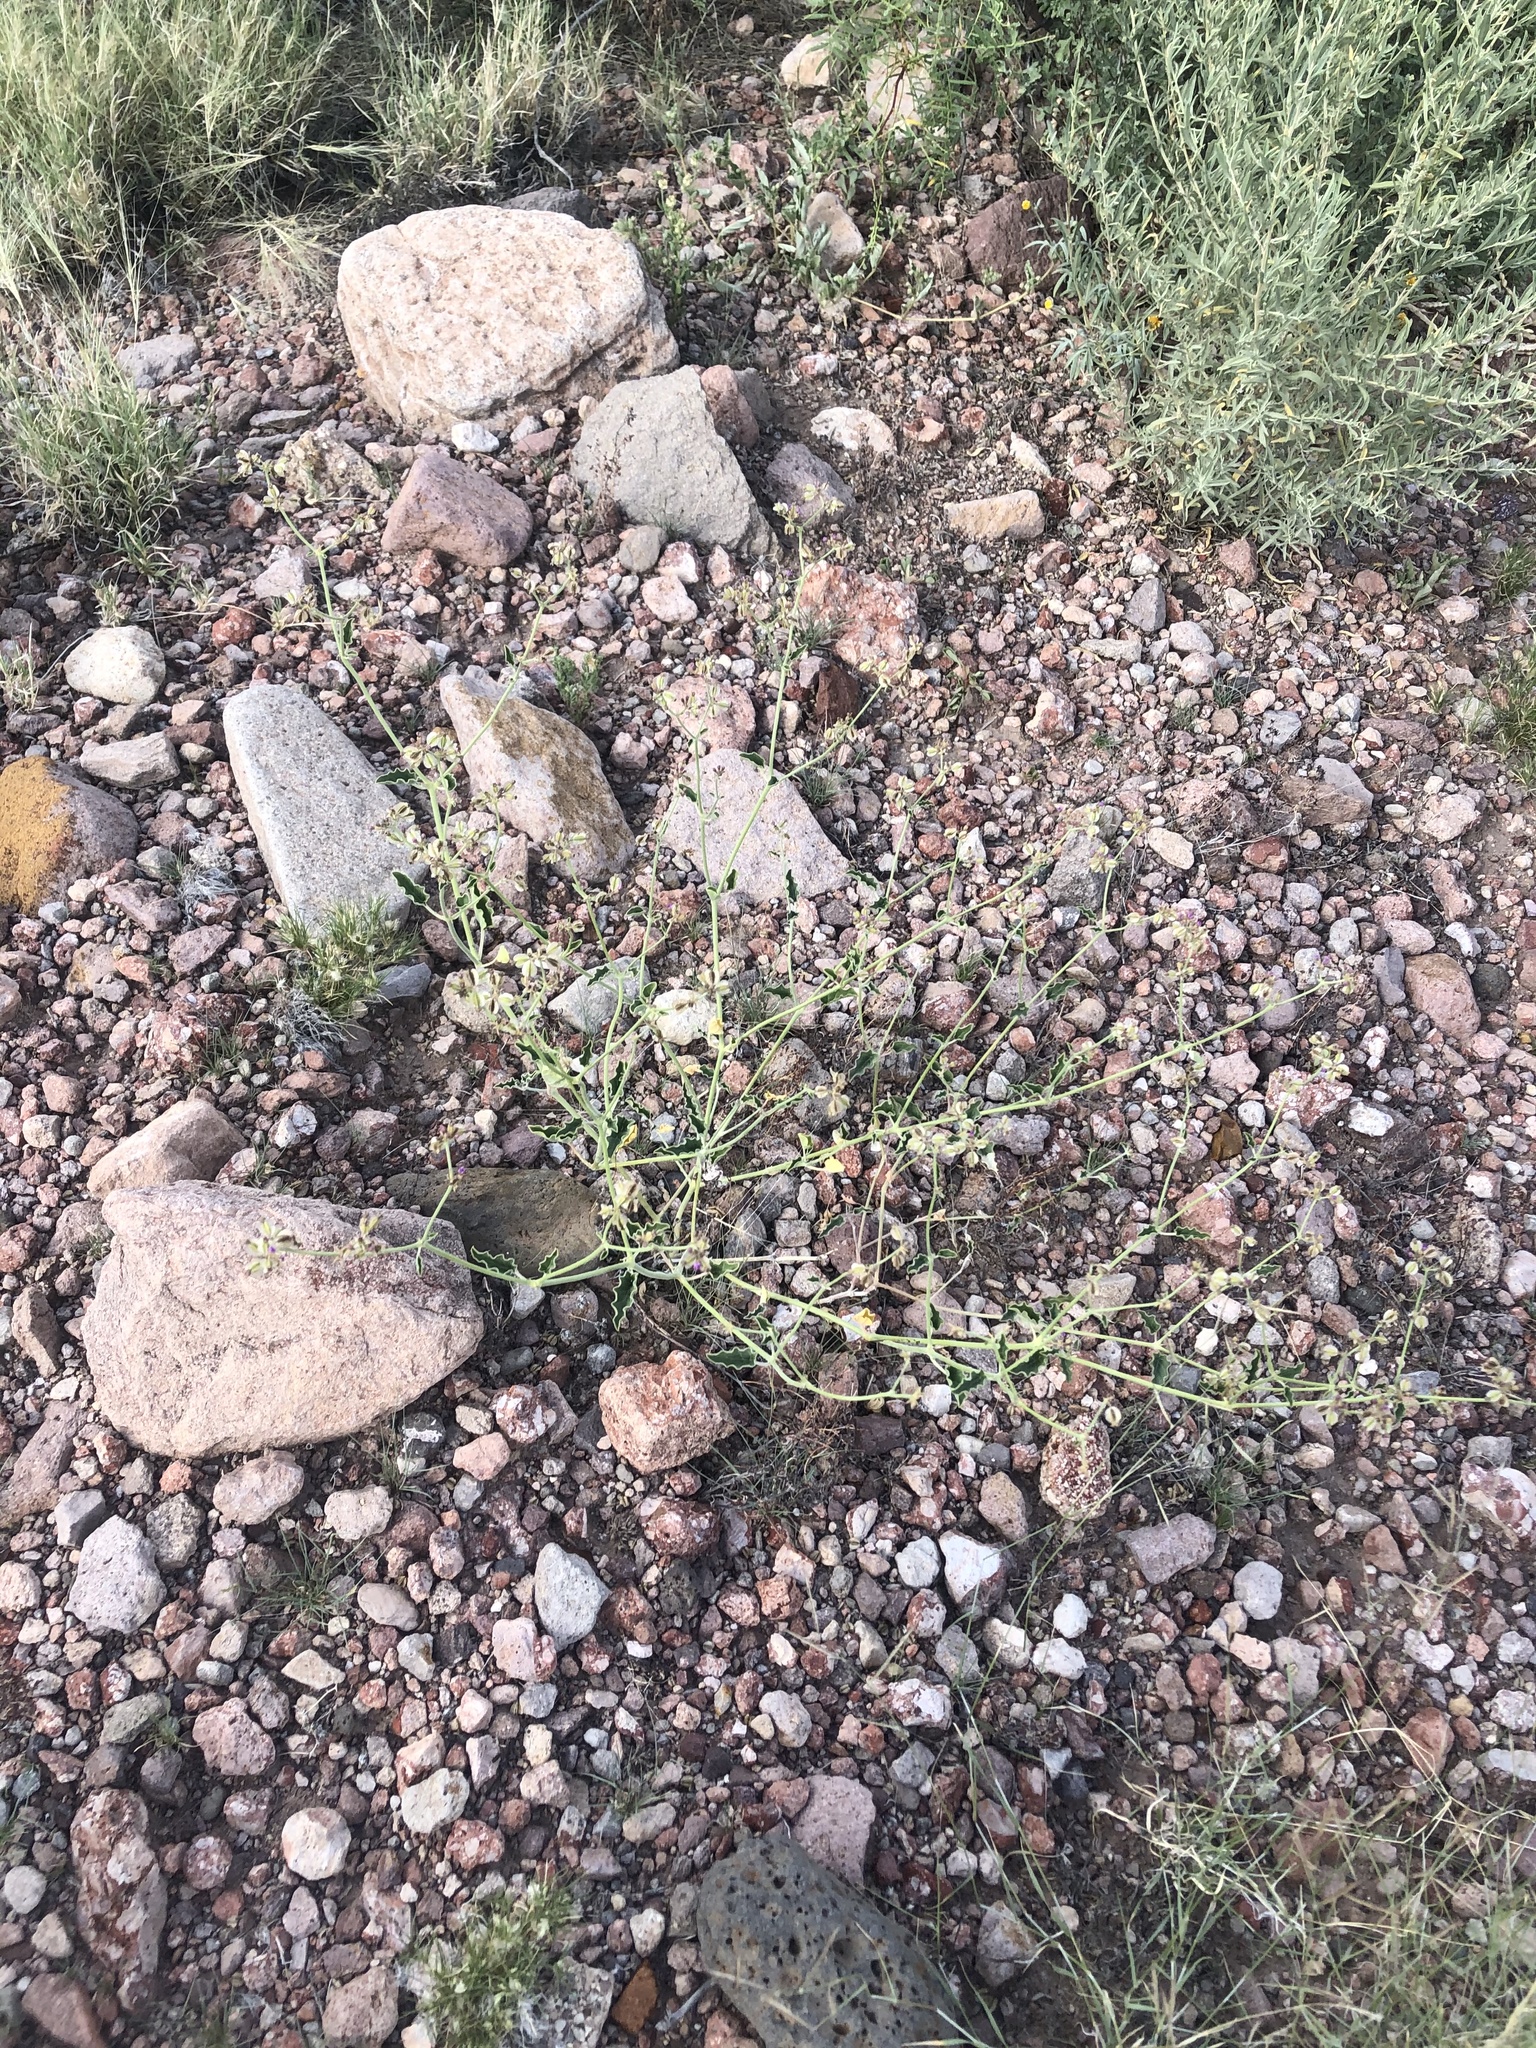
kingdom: Plantae
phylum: Tracheophyta
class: Magnoliopsida
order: Caryophyllales
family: Nyctaginaceae
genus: Acleisanthes
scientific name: Acleisanthes chenopodioides
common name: Goosefoot moonpod
